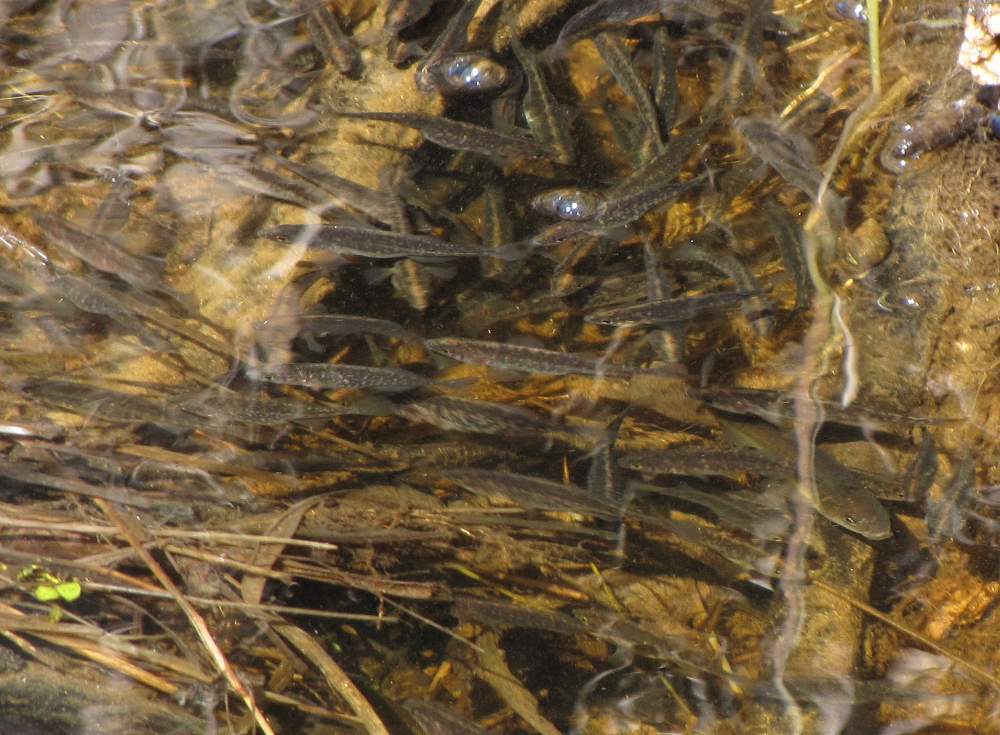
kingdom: Animalia
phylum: Chordata
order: Gasterosteiformes
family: Gasterosteidae
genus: Culaea
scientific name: Culaea inconstans
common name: Brook stickleback
